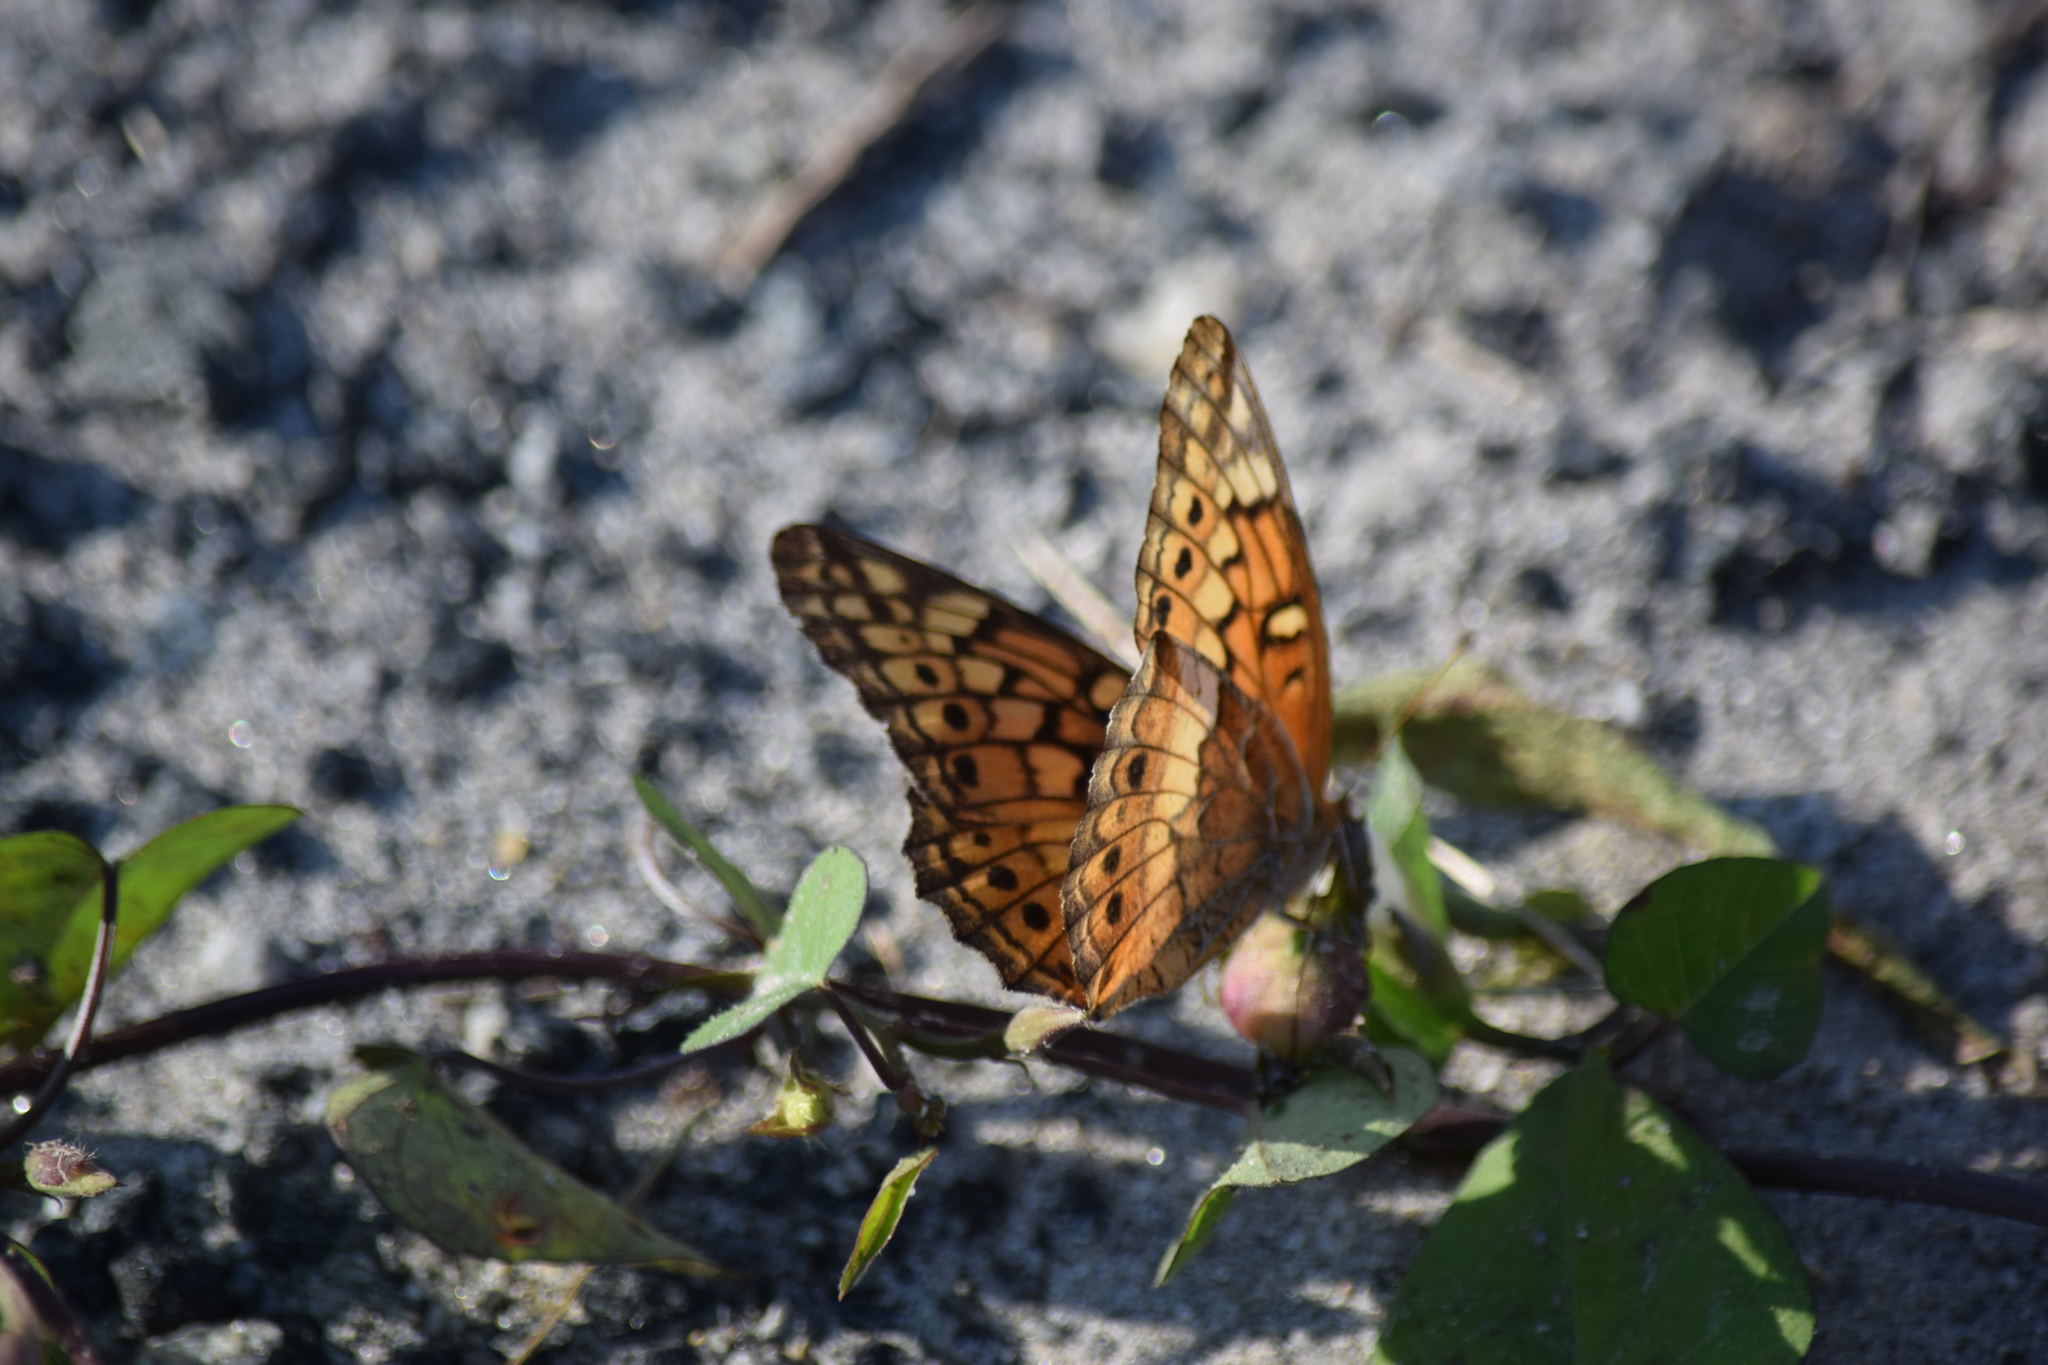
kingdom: Animalia
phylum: Arthropoda
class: Insecta
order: Lepidoptera
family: Nymphalidae
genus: Euptoieta
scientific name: Euptoieta claudia
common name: Variegated fritillary
